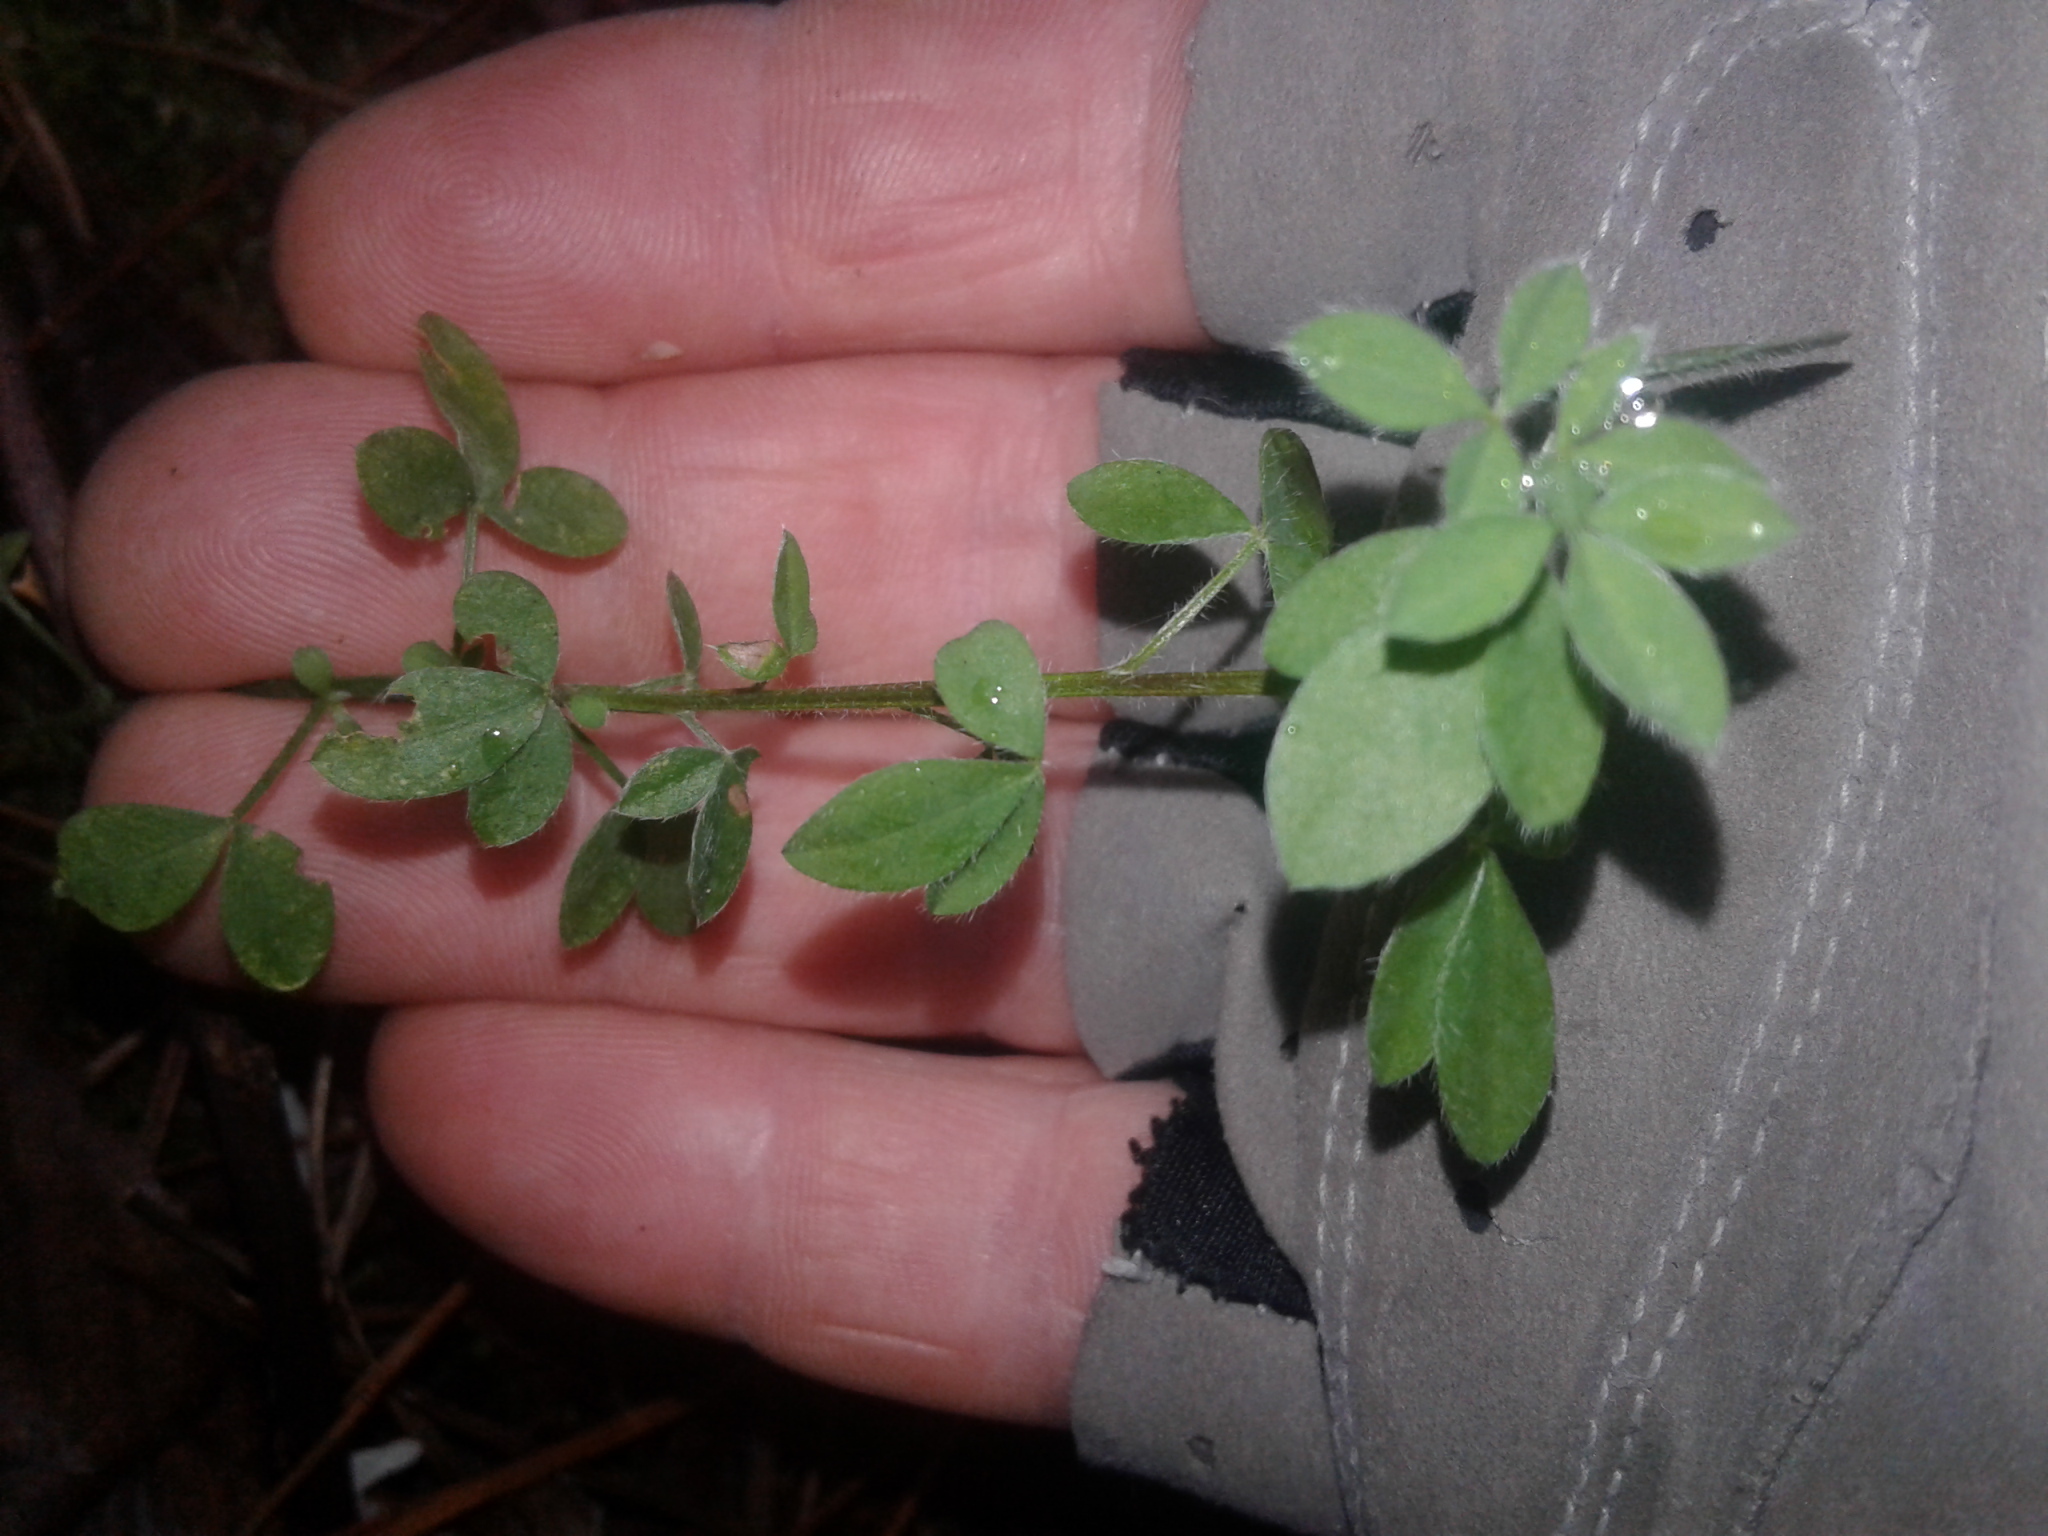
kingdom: Plantae
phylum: Tracheophyta
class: Magnoliopsida
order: Fabales
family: Fabaceae
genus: Cytisus
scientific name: Cytisus scoparius
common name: Scotch broom
